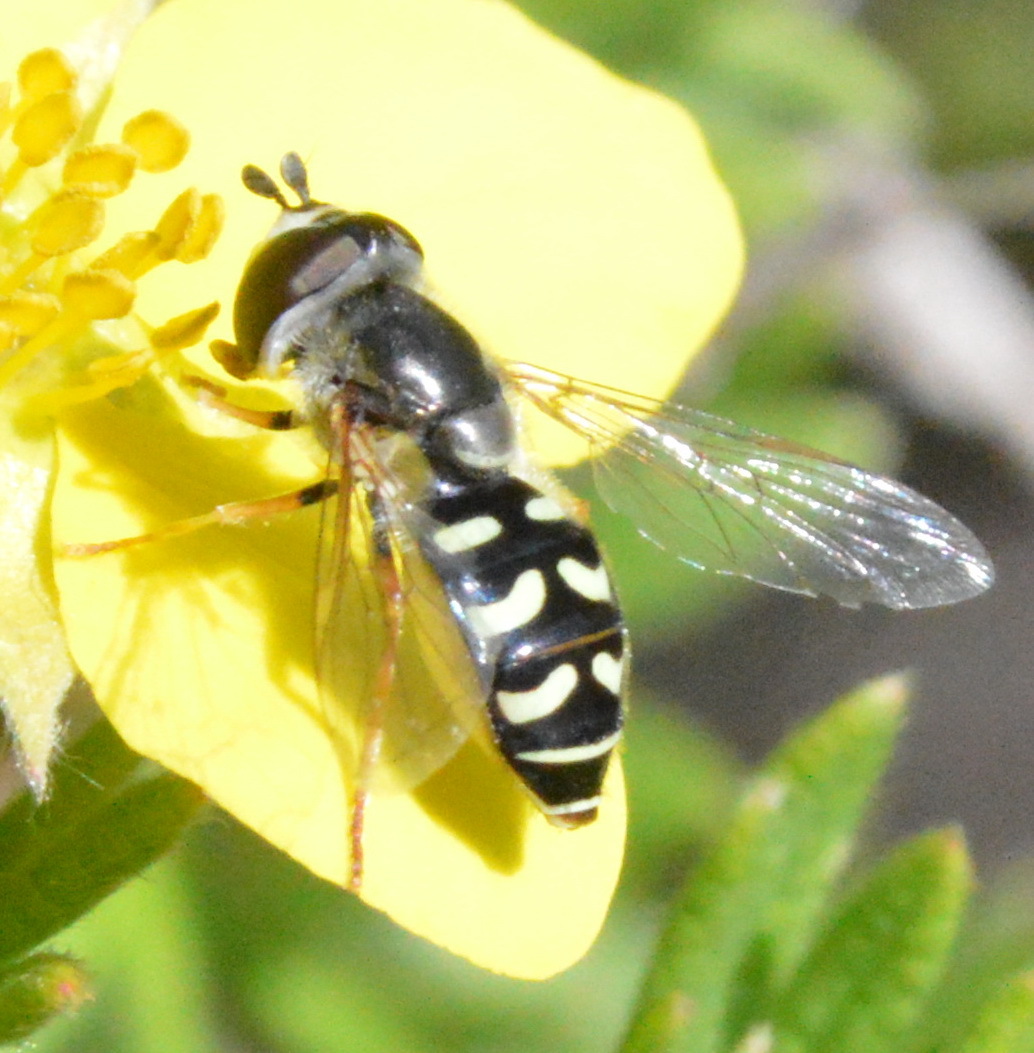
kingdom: Animalia
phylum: Arthropoda
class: Insecta
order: Diptera
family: Syrphidae
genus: Eupeodes
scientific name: Eupeodes volucris
